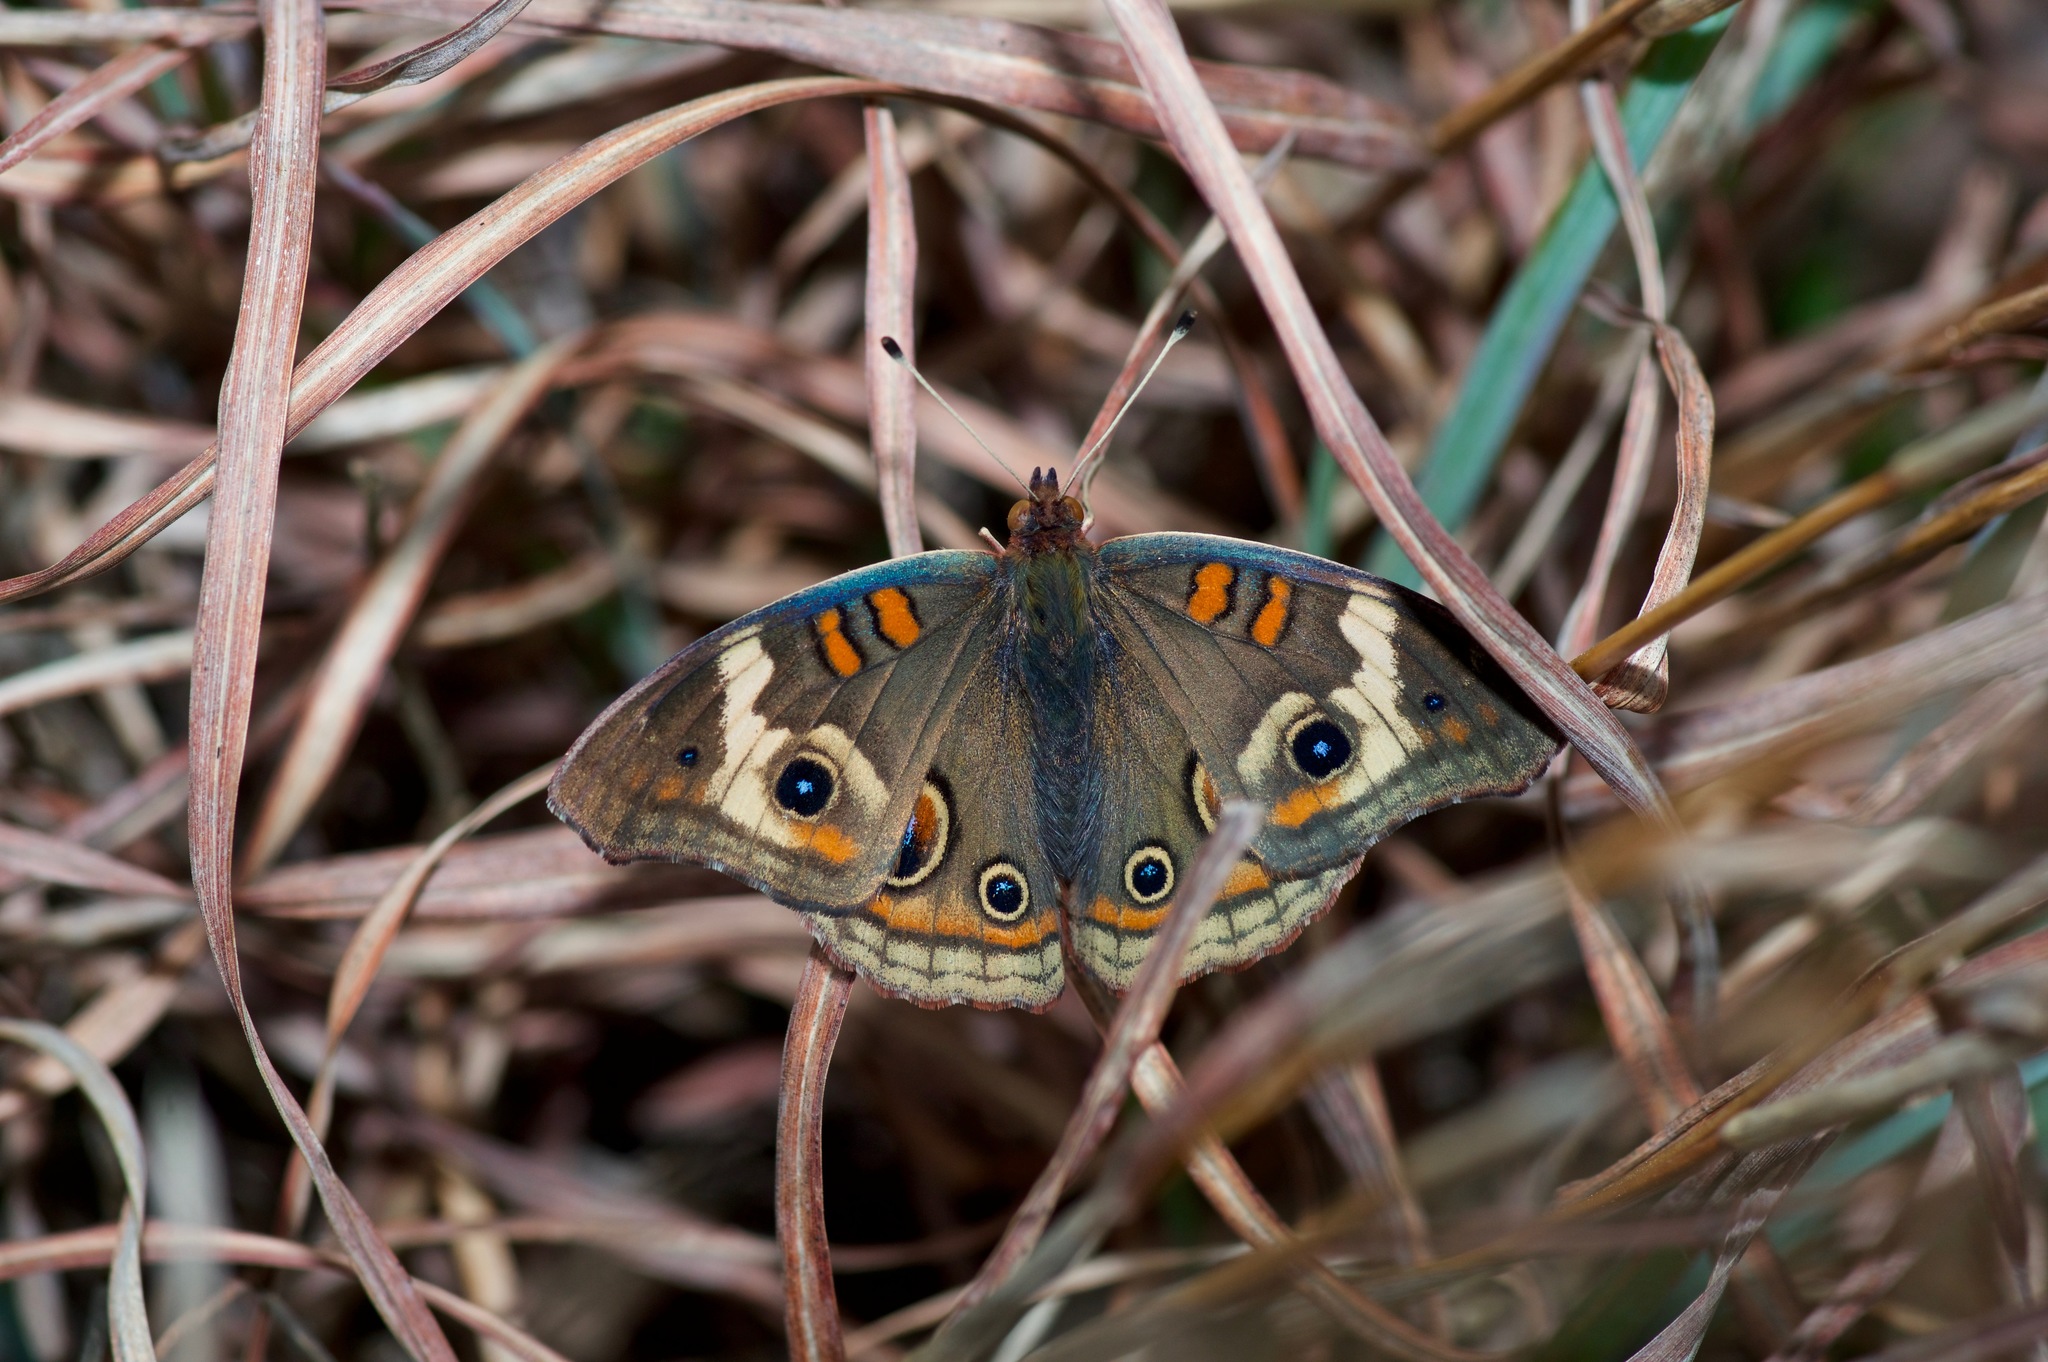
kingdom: Animalia
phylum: Arthropoda
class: Insecta
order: Lepidoptera
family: Nymphalidae
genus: Junonia
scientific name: Junonia coenia
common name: Common buckeye
